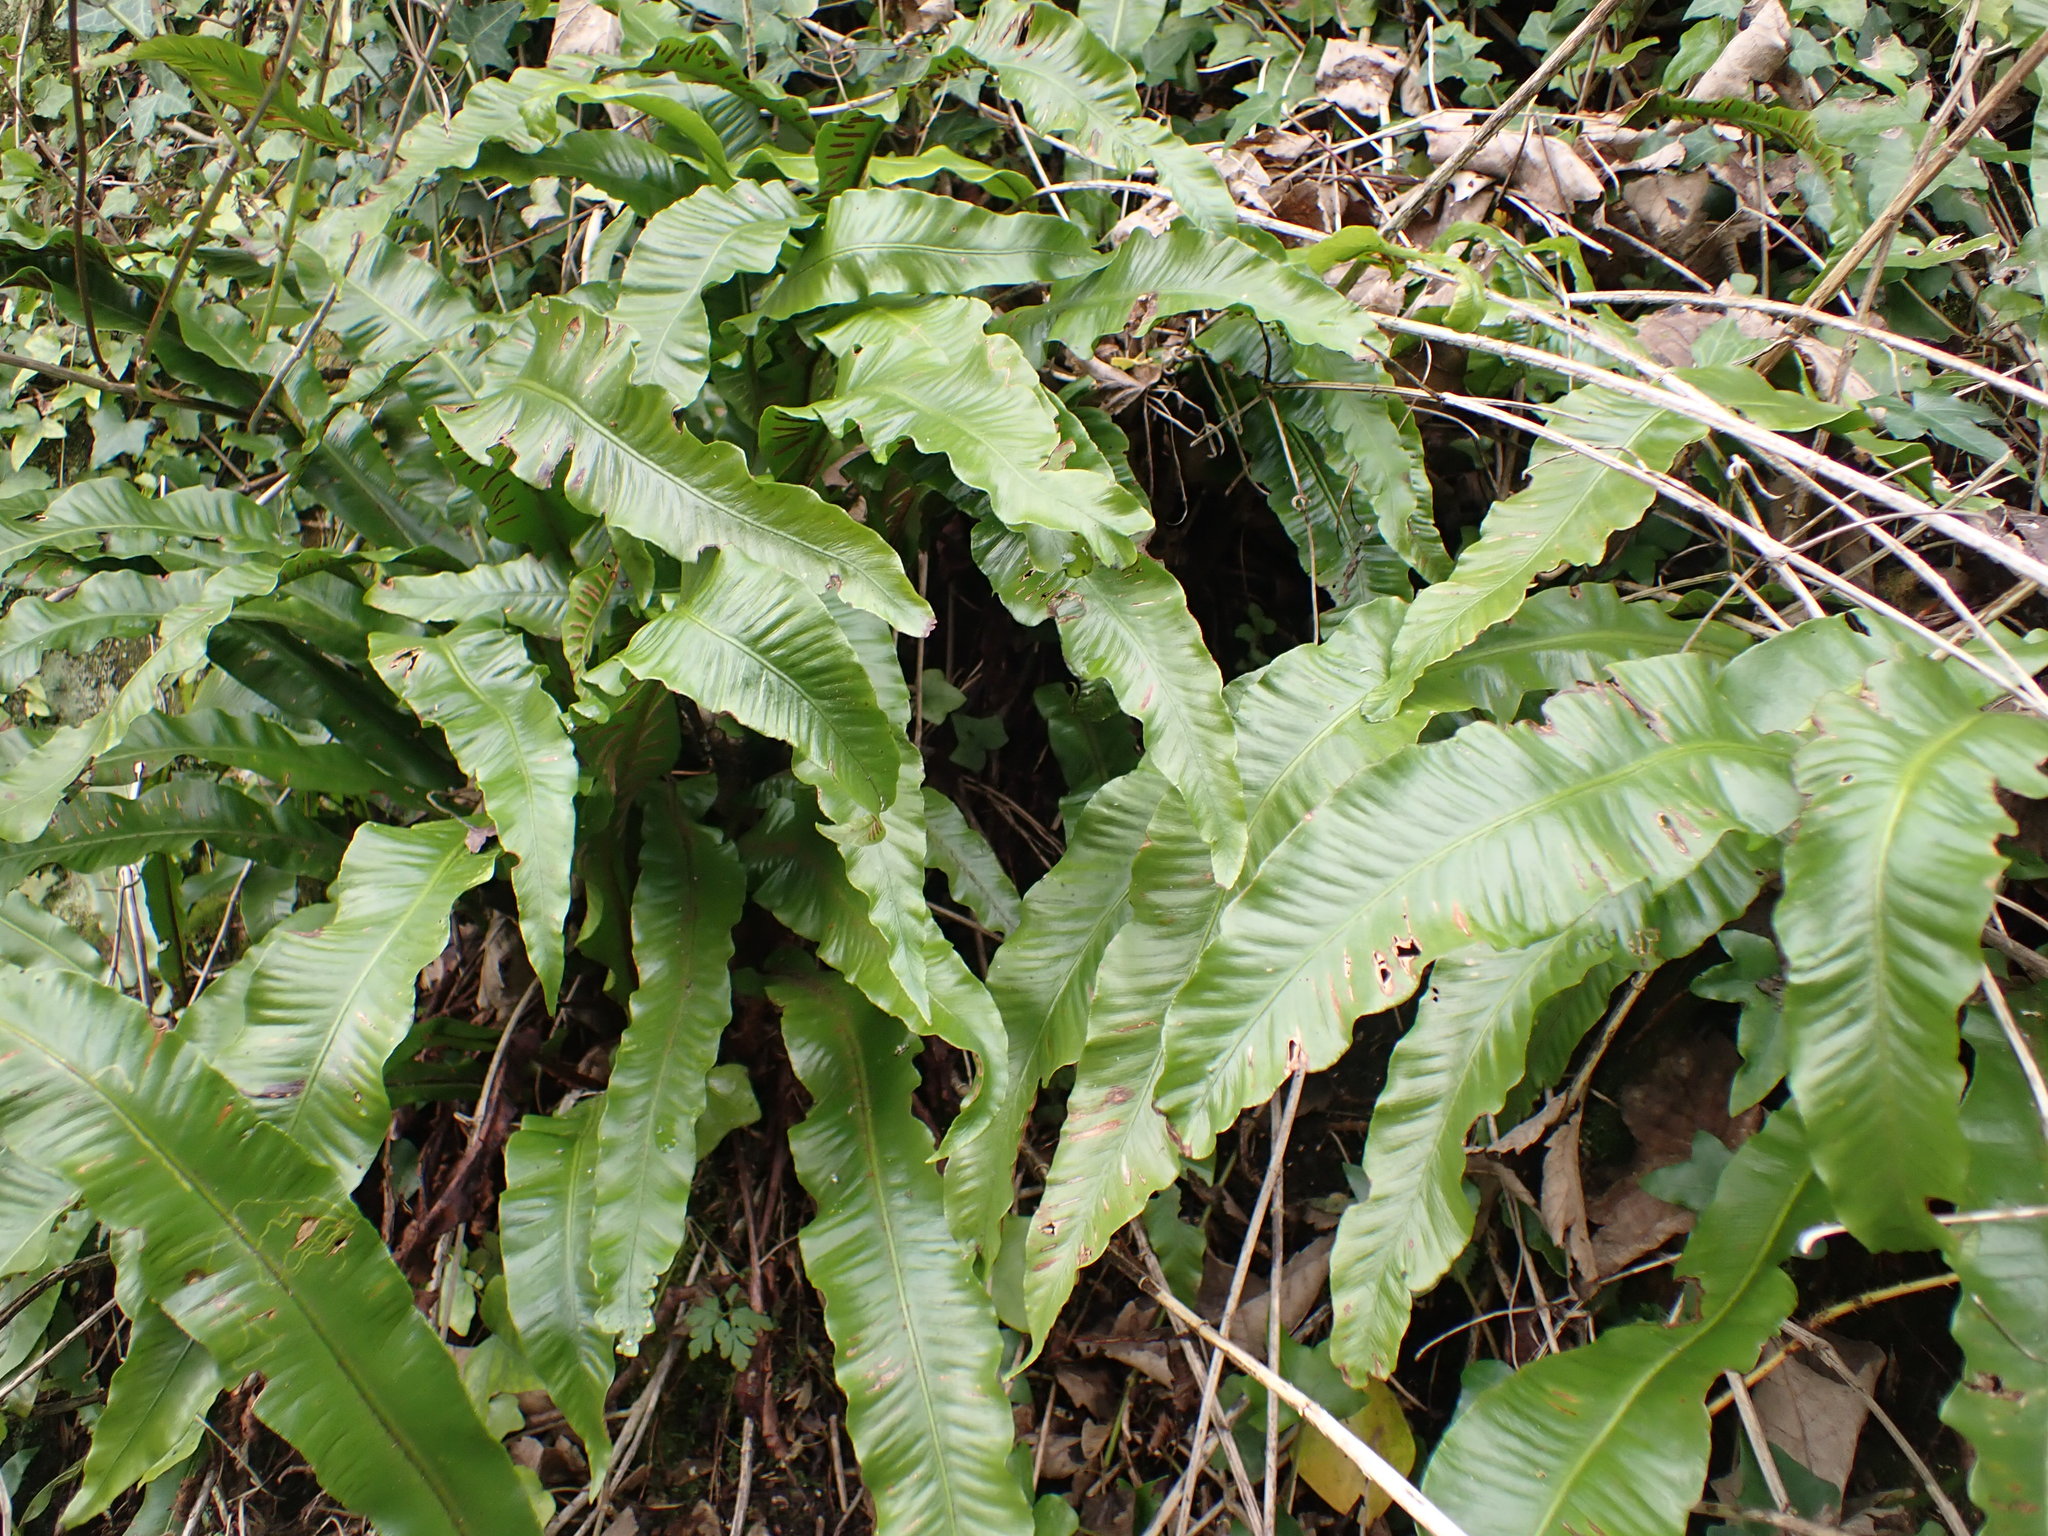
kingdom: Plantae
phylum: Tracheophyta
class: Polypodiopsida
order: Polypodiales
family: Aspleniaceae
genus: Asplenium
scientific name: Asplenium scolopendrium
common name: Hart's-tongue fern
